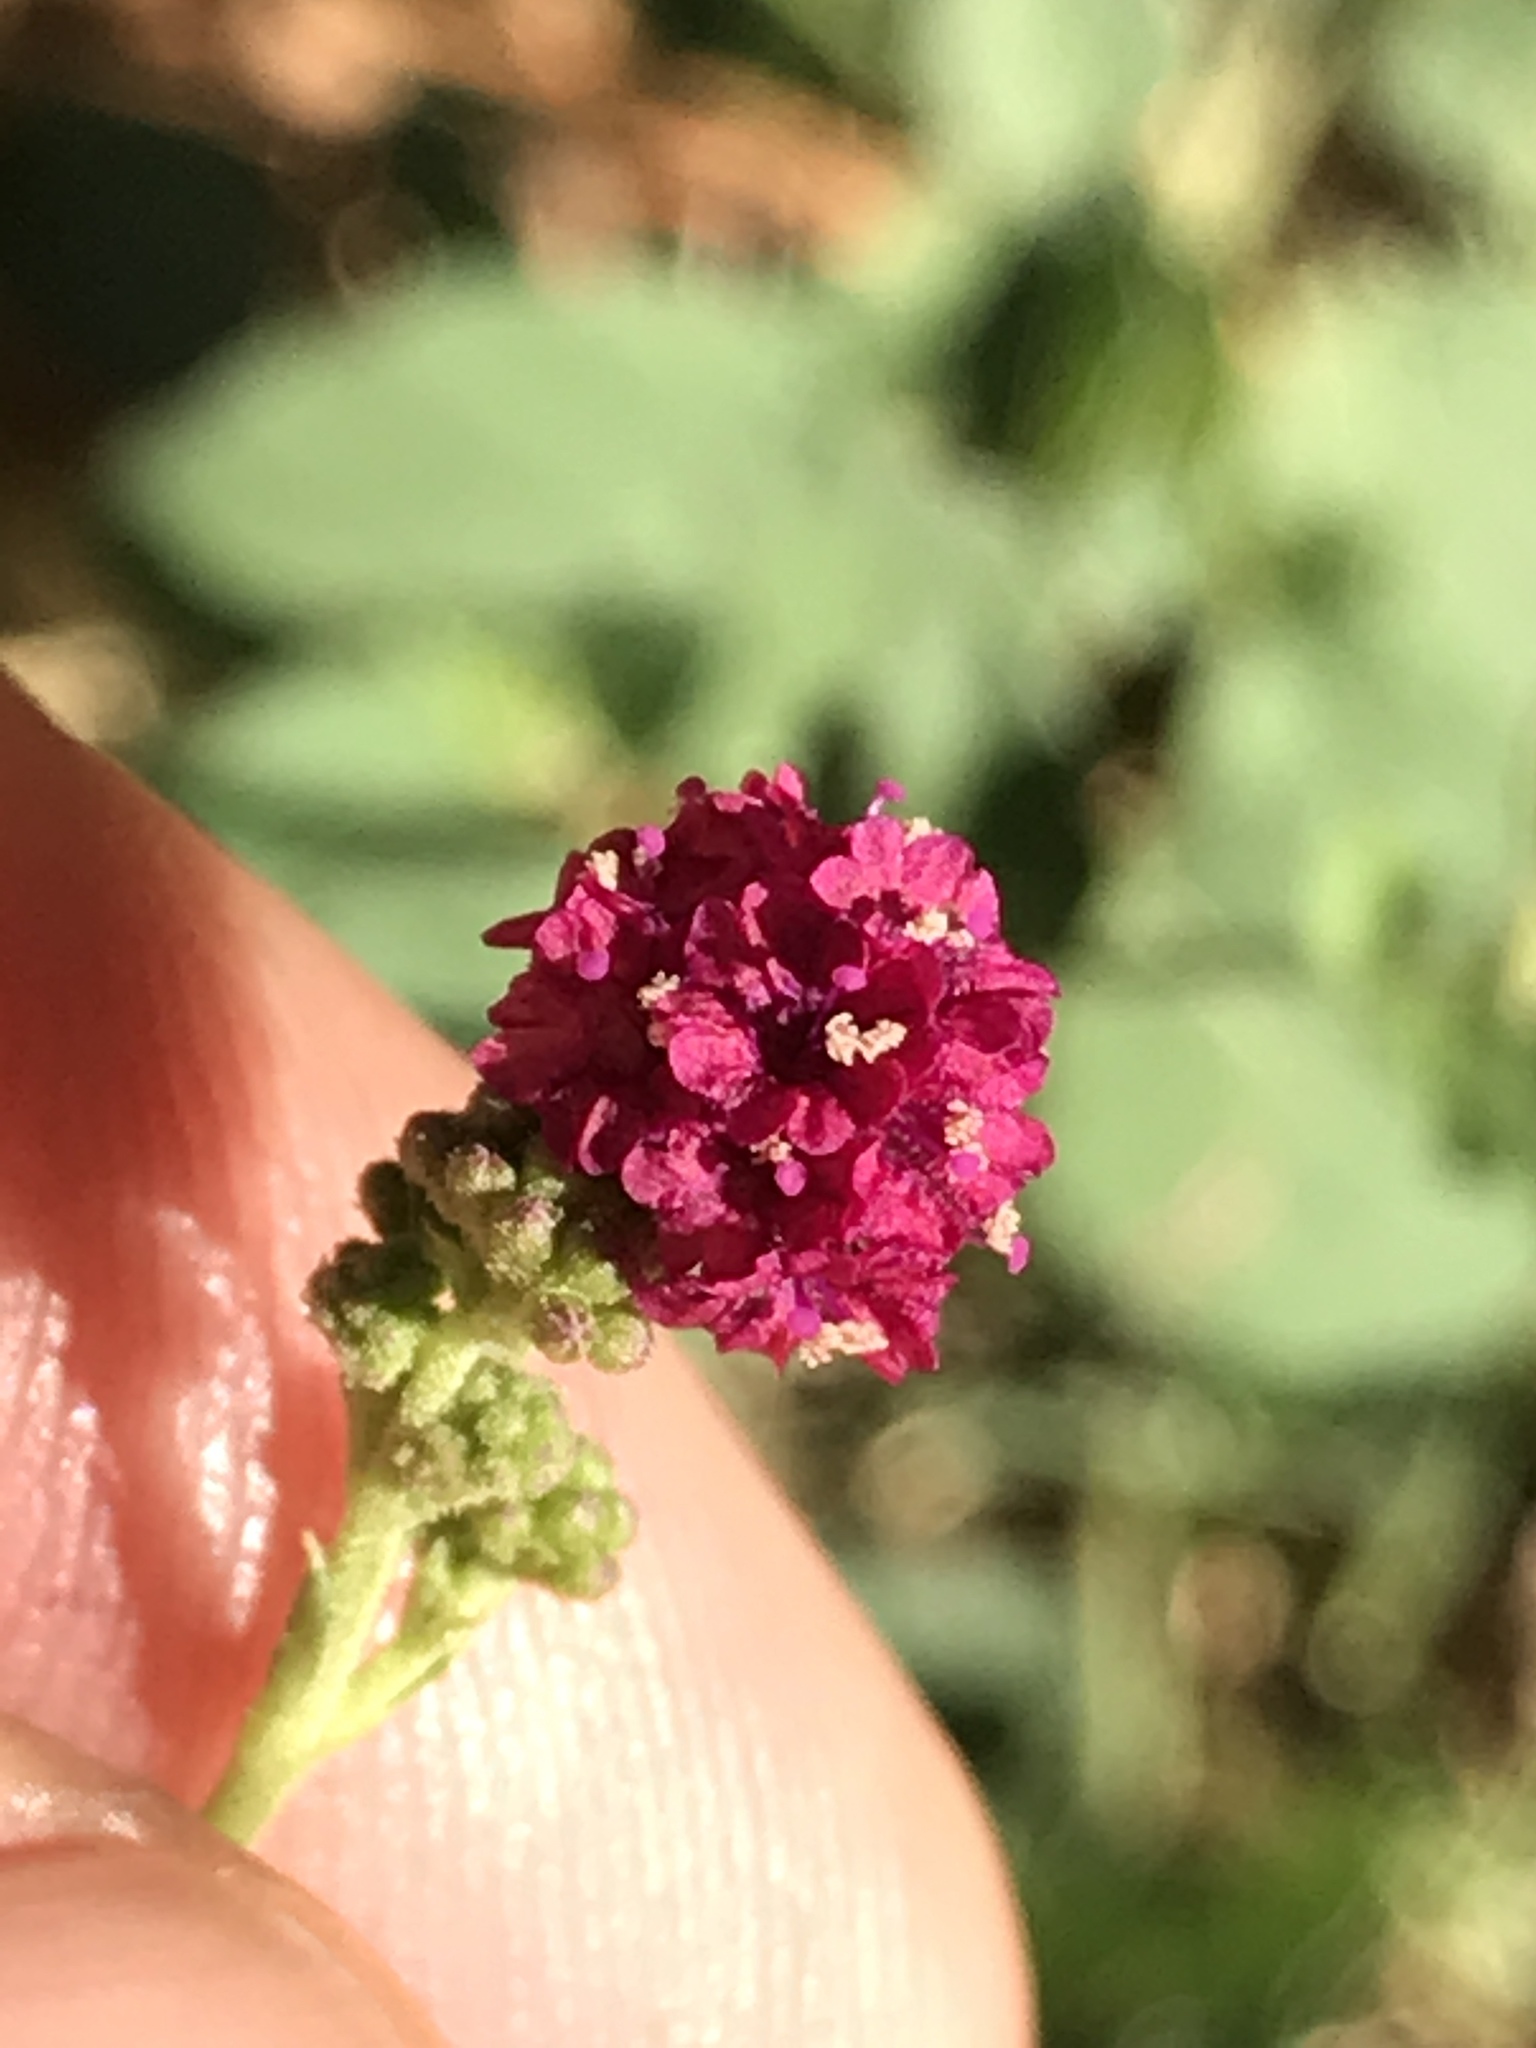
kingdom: Plantae
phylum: Tracheophyta
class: Magnoliopsida
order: Caryophyllales
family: Nyctaginaceae
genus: Boerhavia
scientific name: Boerhavia coccinea
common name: Scarlet spiderling
